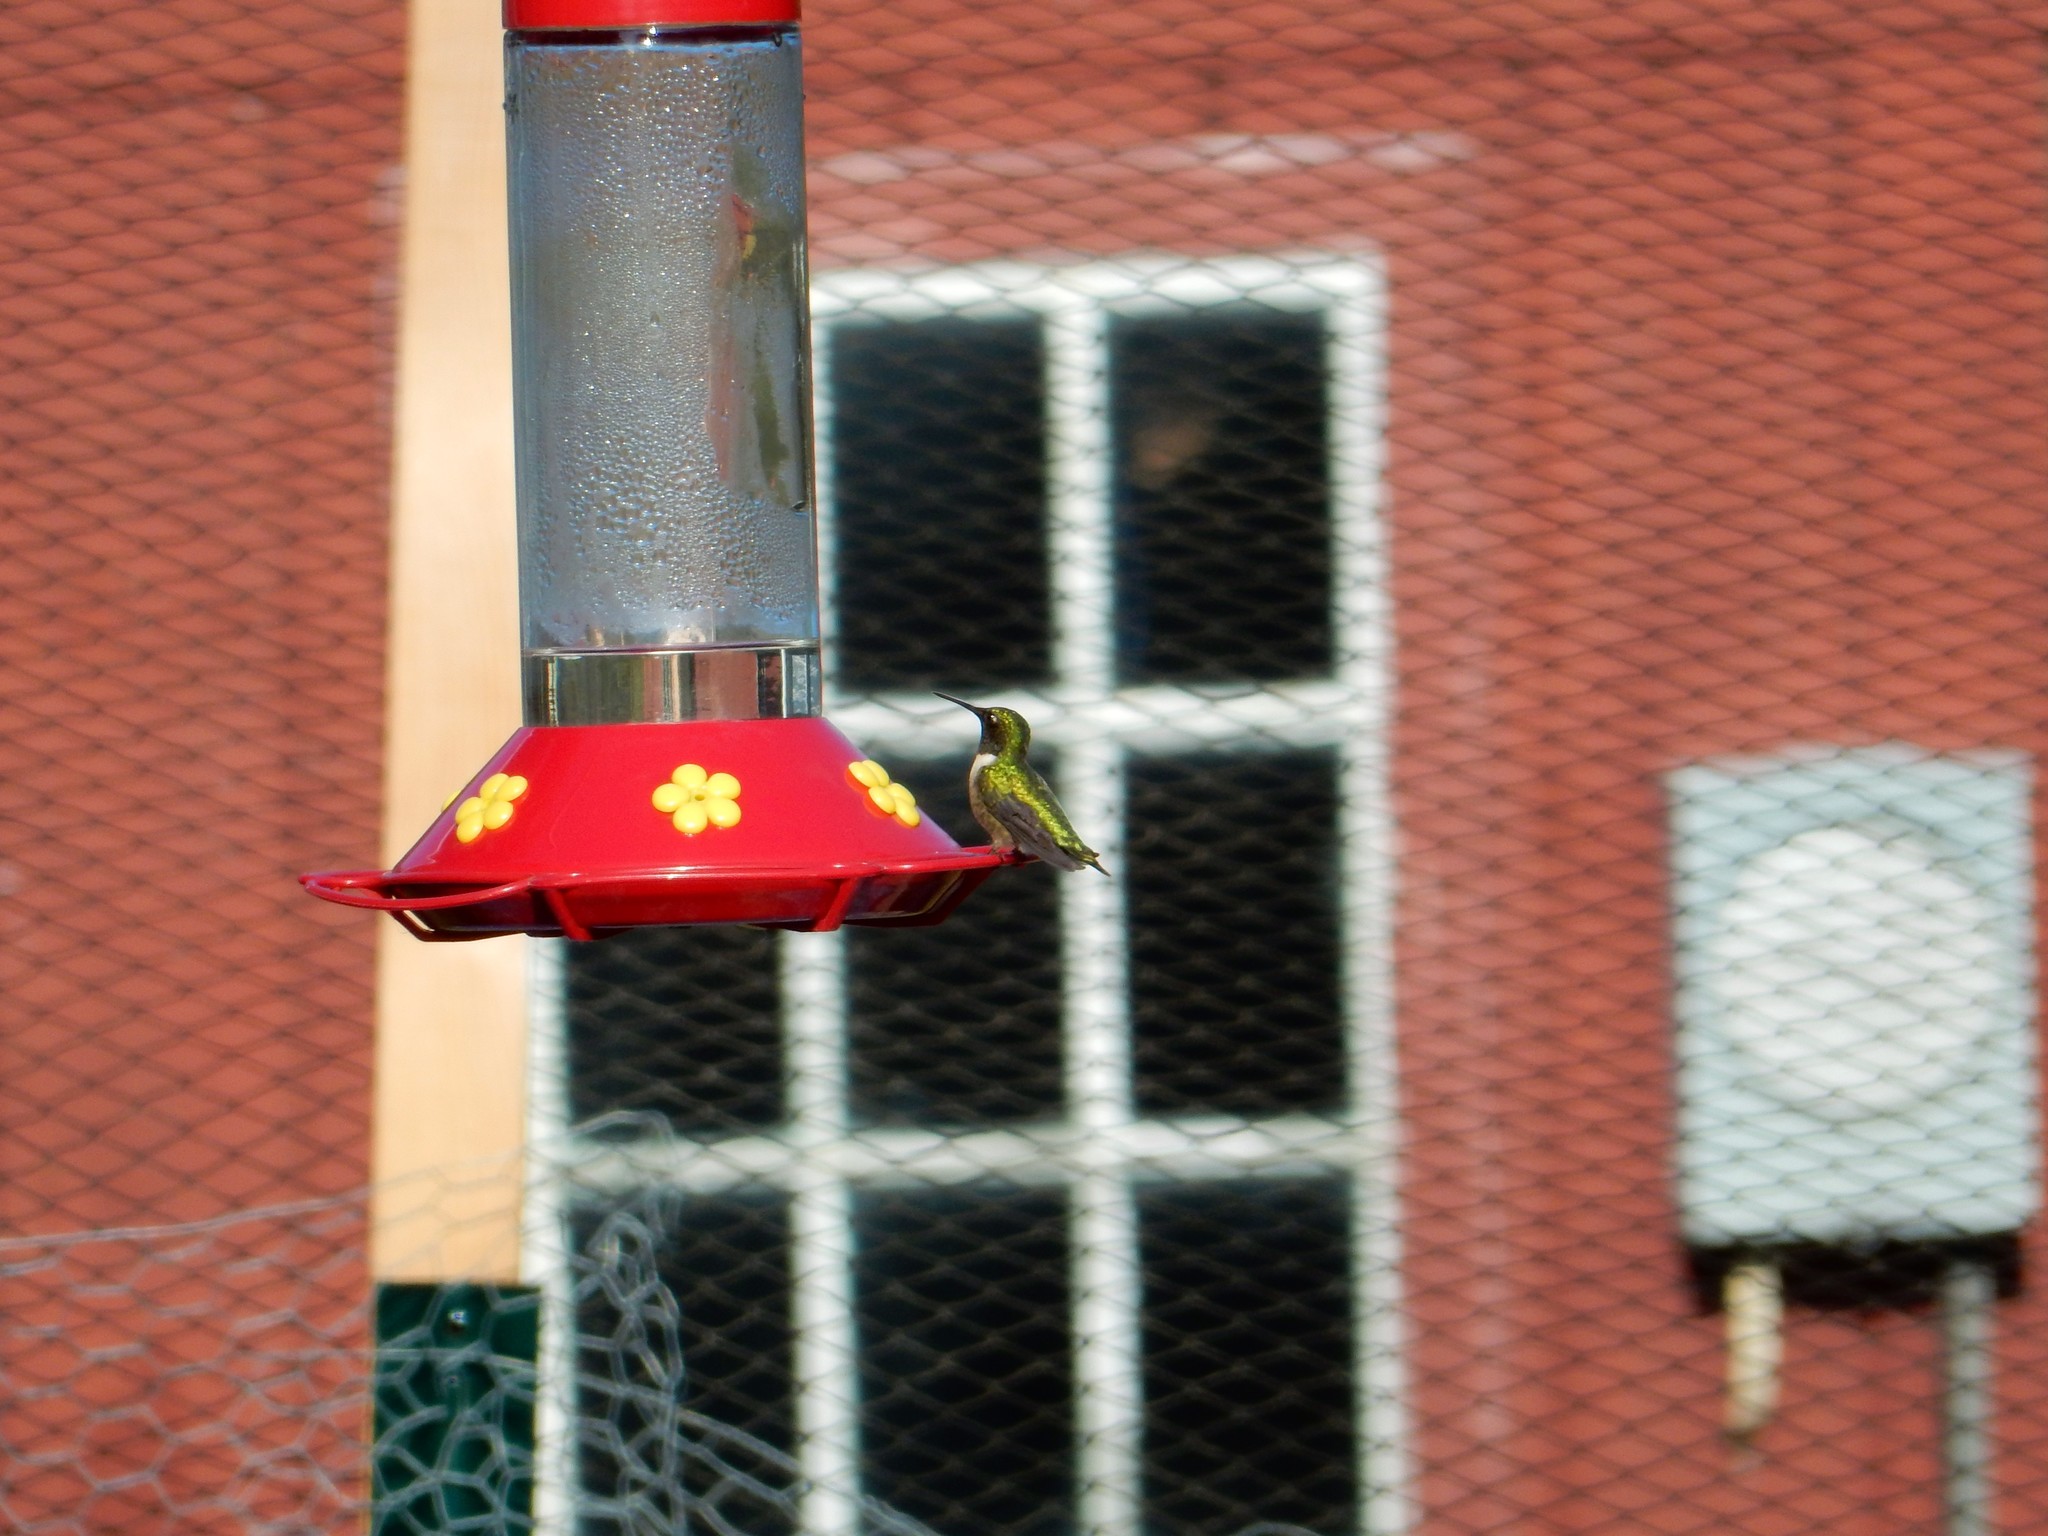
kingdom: Animalia
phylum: Chordata
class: Aves
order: Apodiformes
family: Trochilidae
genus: Archilochus
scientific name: Archilochus colubris
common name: Ruby-throated hummingbird
